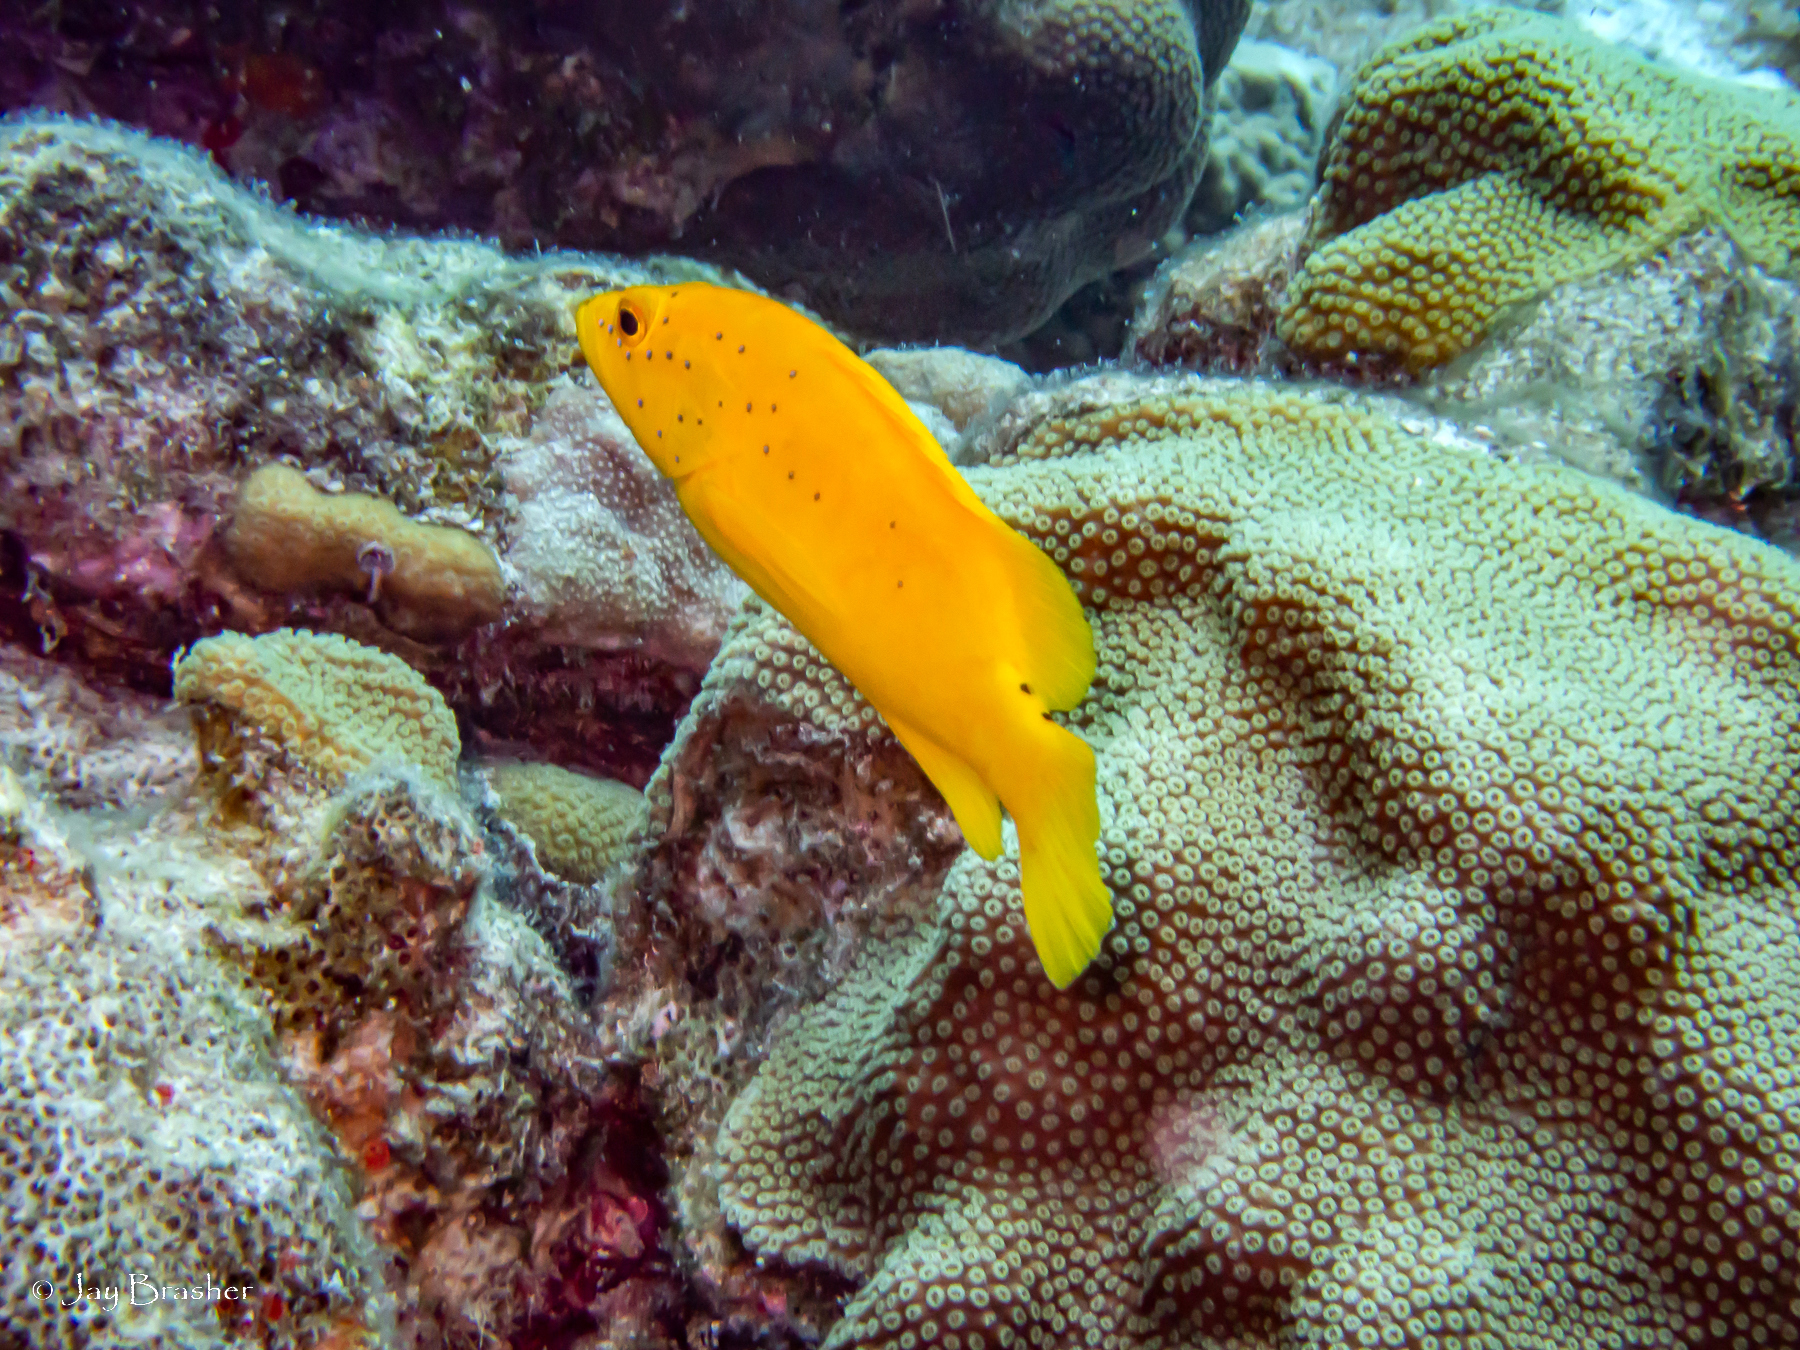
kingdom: Animalia
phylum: Chordata
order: Perciformes
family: Serranidae
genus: Cephalopholis
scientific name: Cephalopholis fulva
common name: Butterfish
